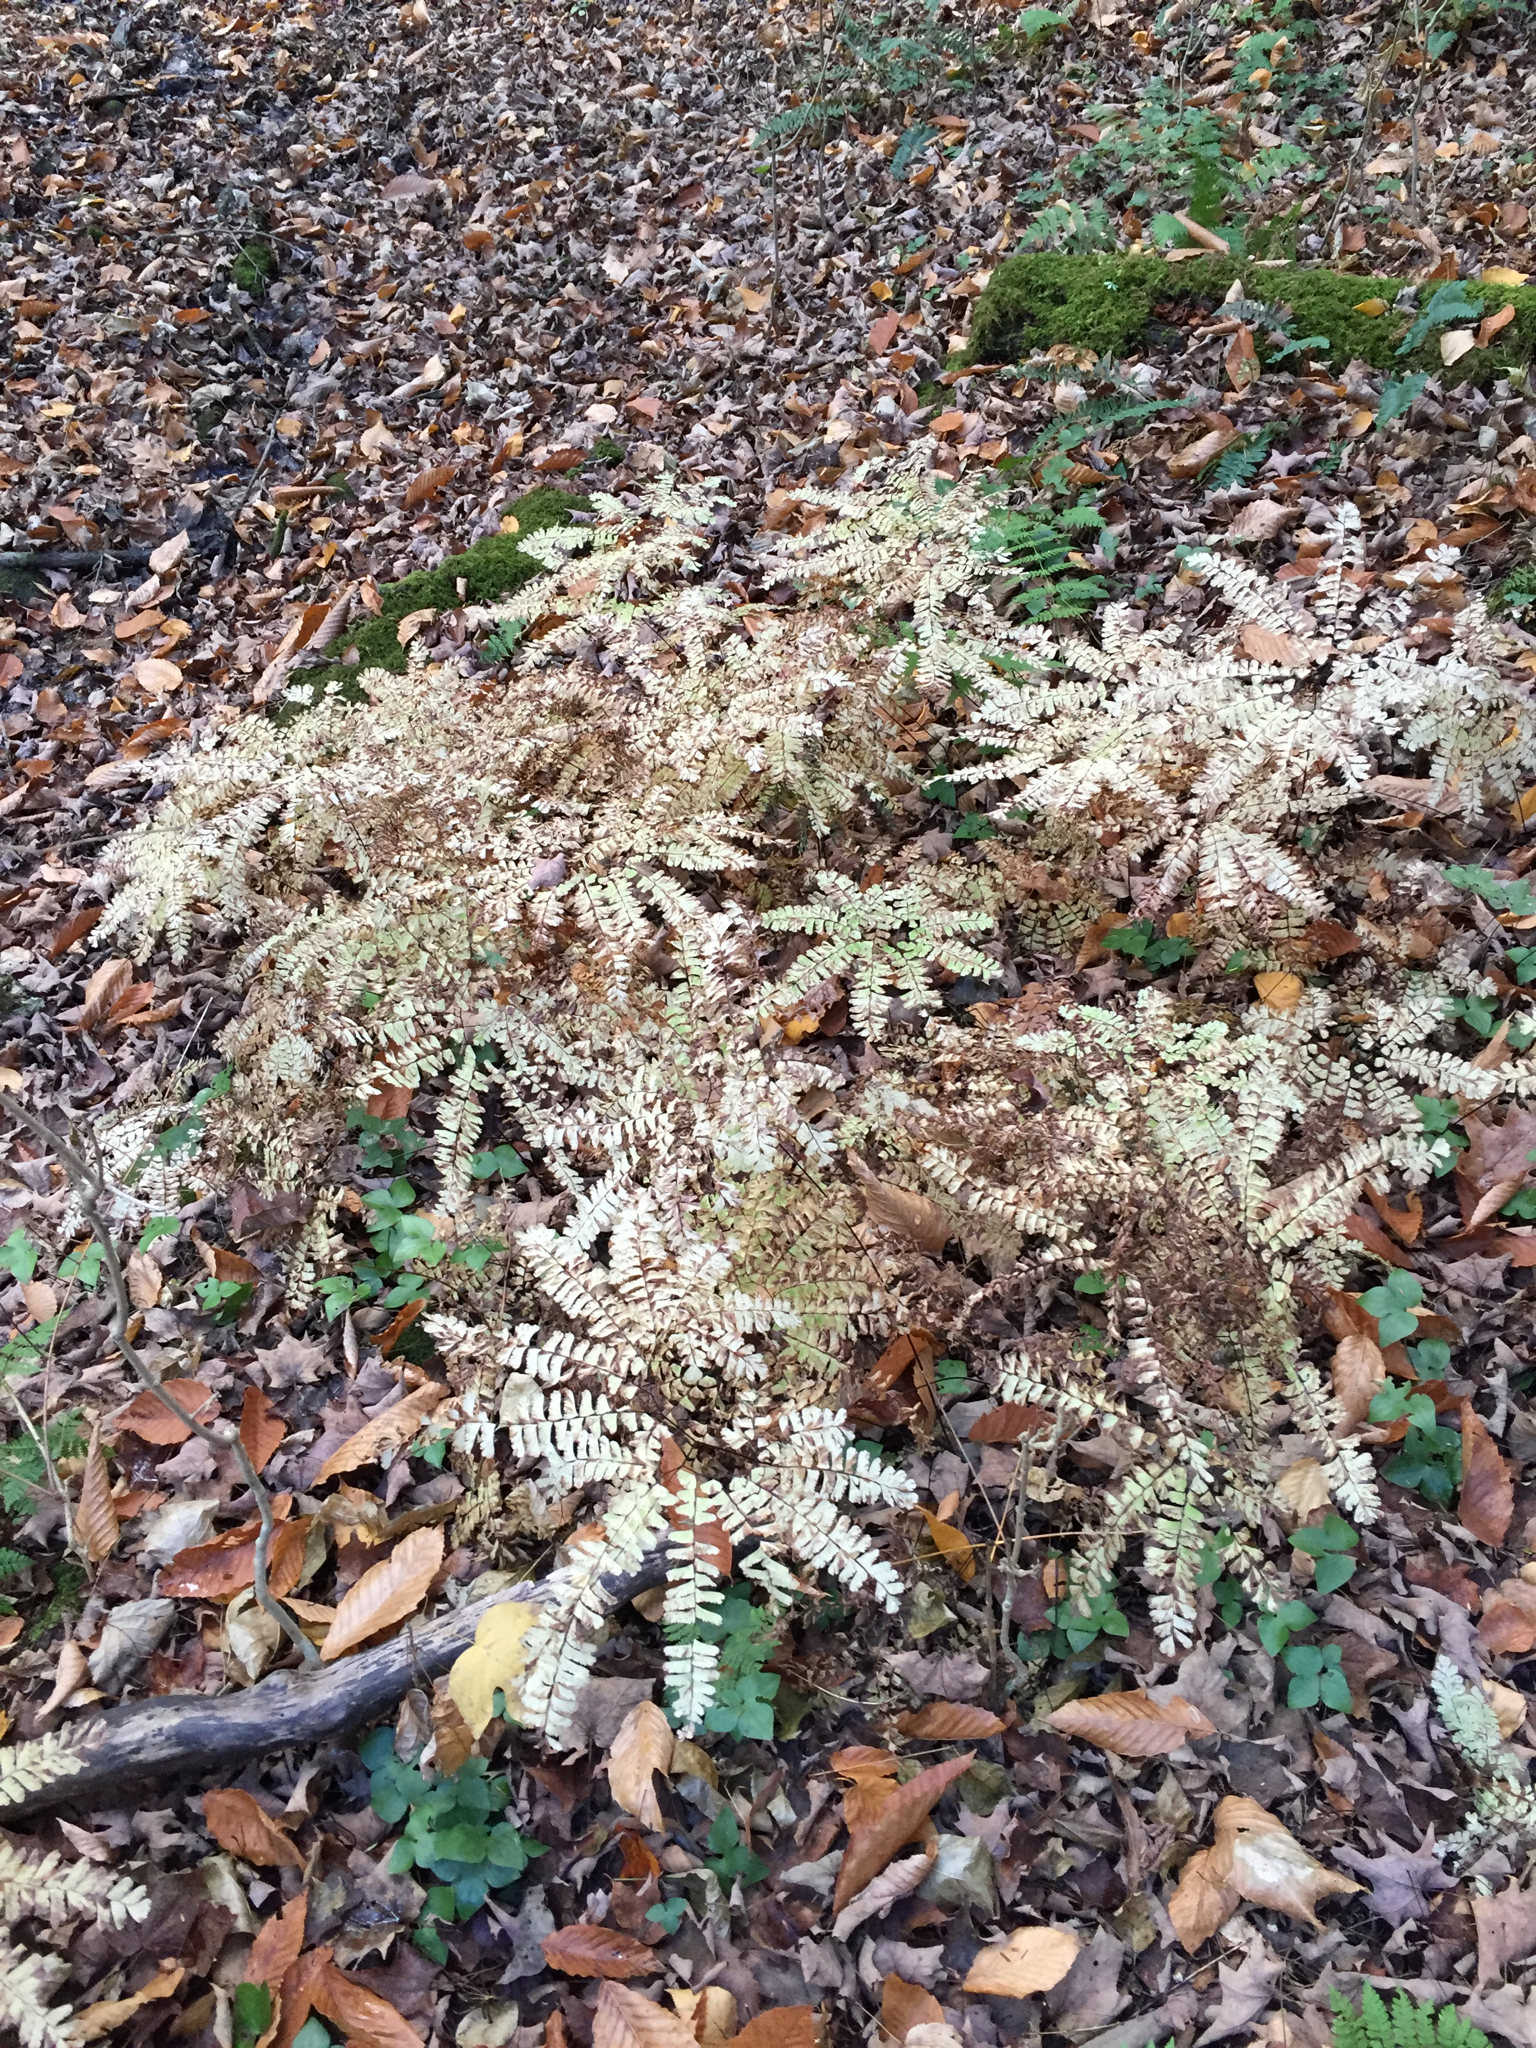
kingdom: Plantae
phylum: Tracheophyta
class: Polypodiopsida
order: Polypodiales
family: Pteridaceae
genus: Adiantum
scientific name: Adiantum pedatum
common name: Five-finger fern
